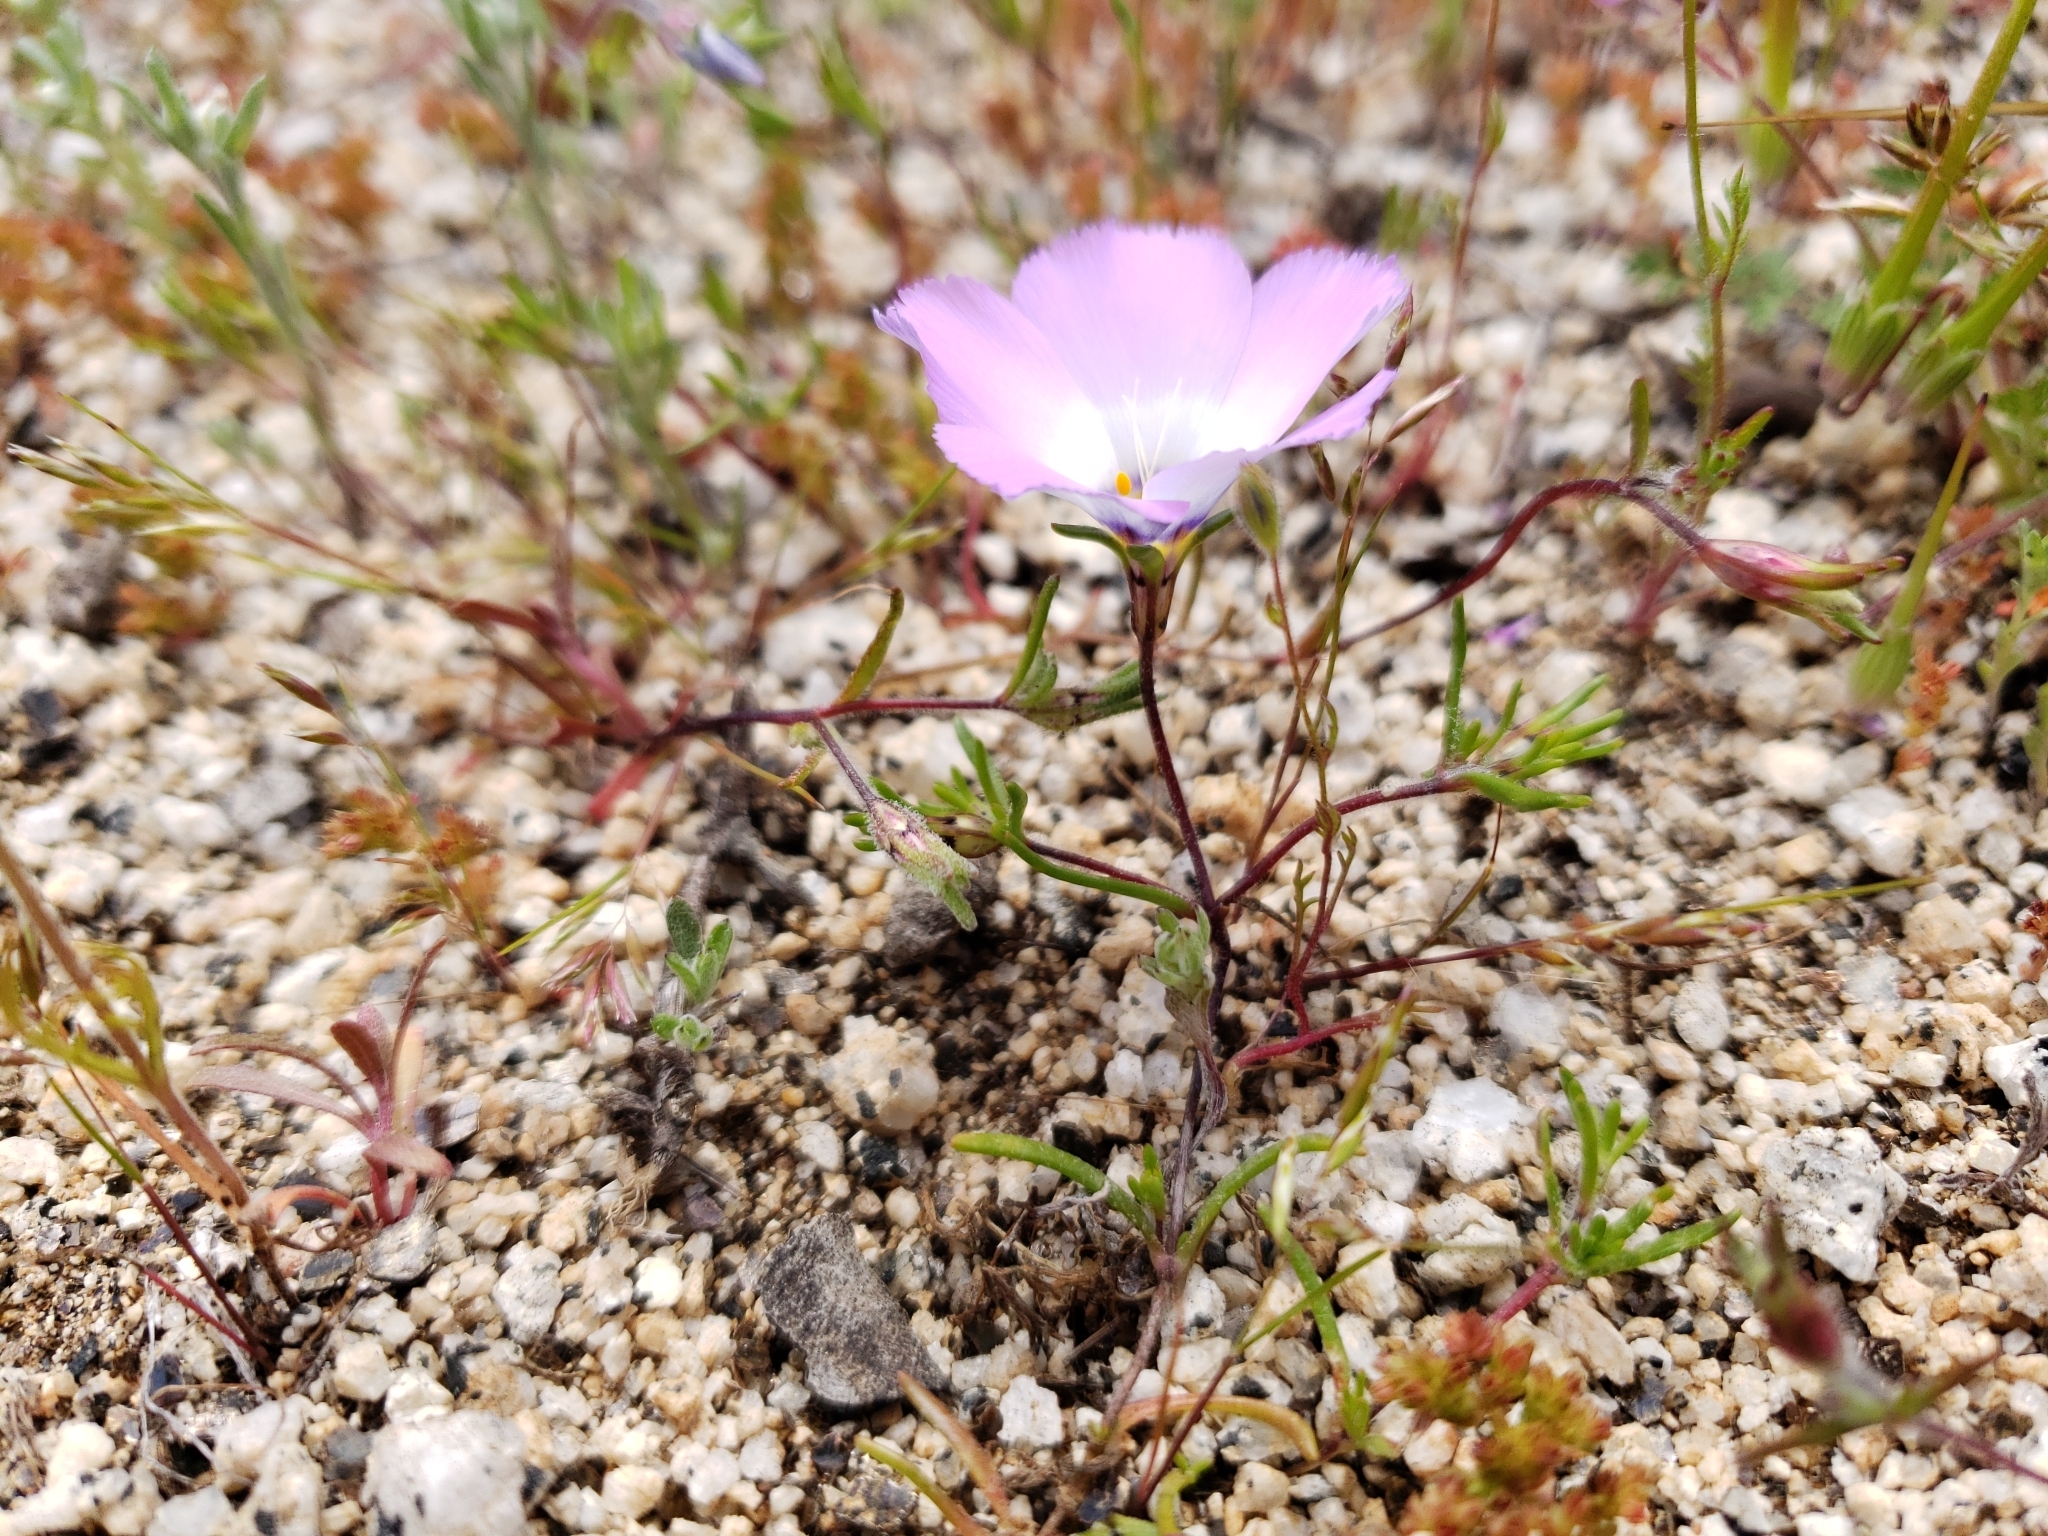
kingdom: Plantae
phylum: Tracheophyta
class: Magnoliopsida
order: Ericales
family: Polemoniaceae
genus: Linanthus
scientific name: Linanthus dianthiflorus
